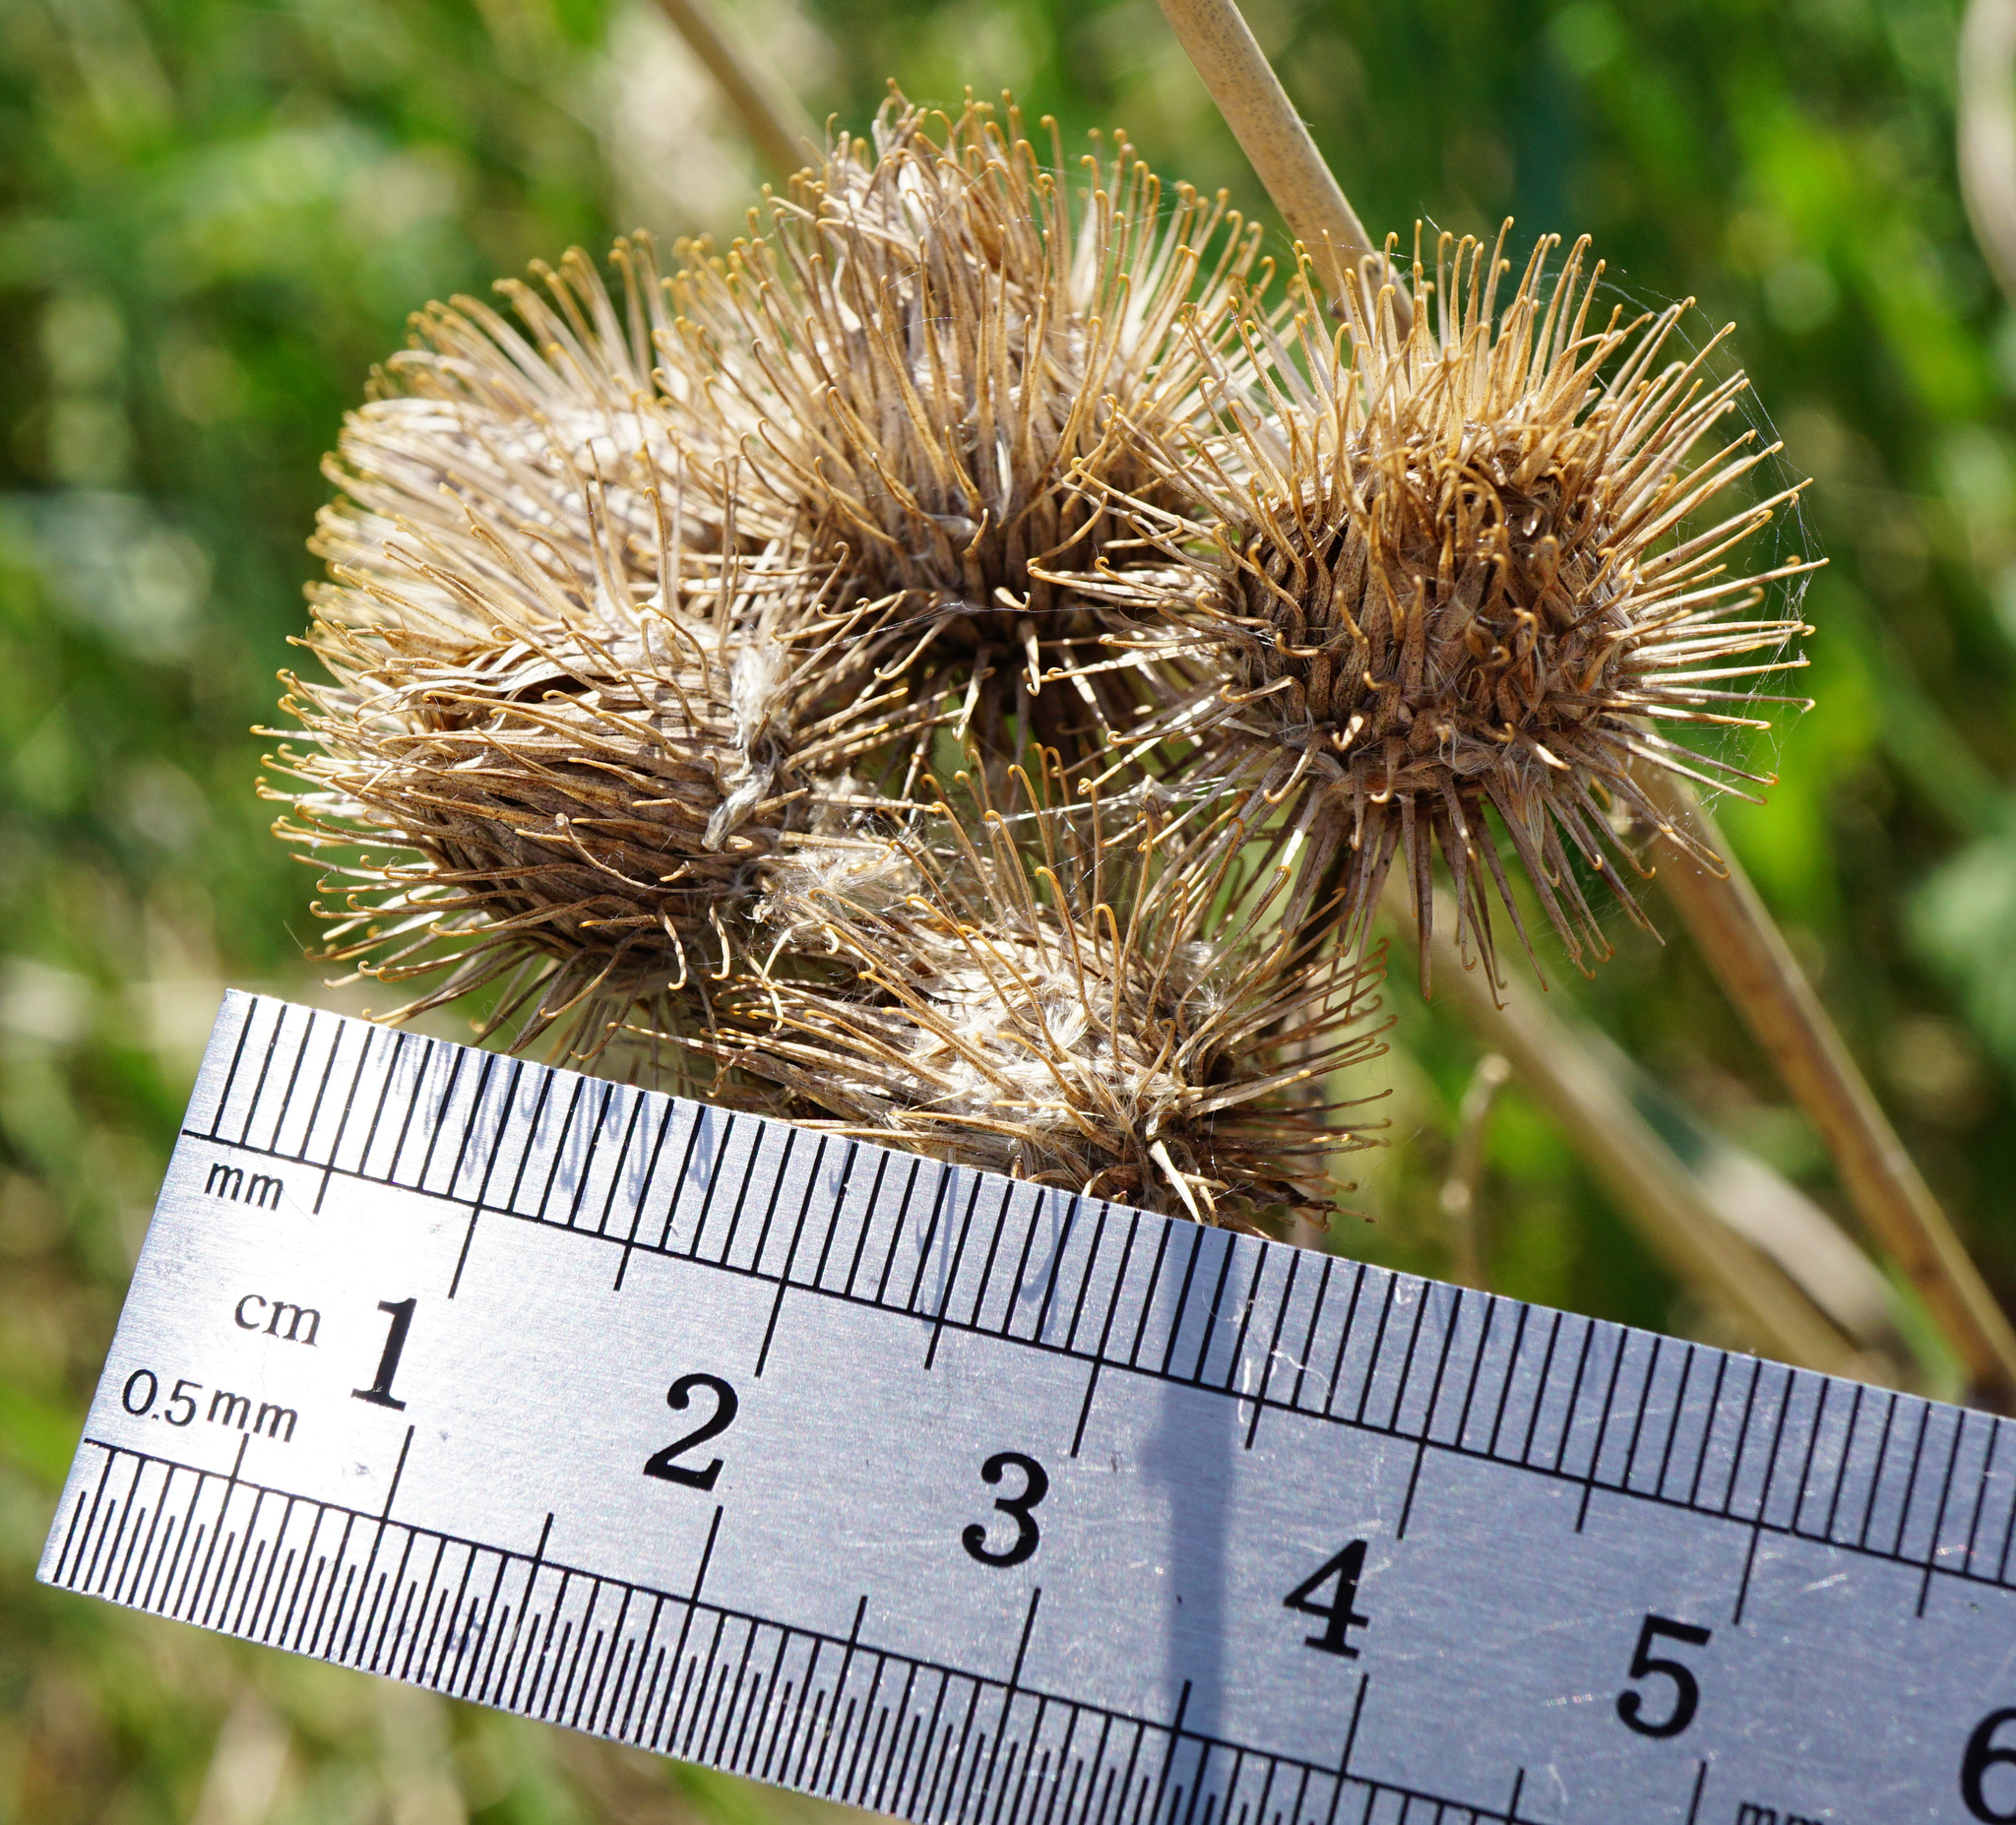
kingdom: Plantae
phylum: Tracheophyta
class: Magnoliopsida
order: Asterales
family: Asteraceae
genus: Arctium
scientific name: Arctium lappa
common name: Greater burdock
